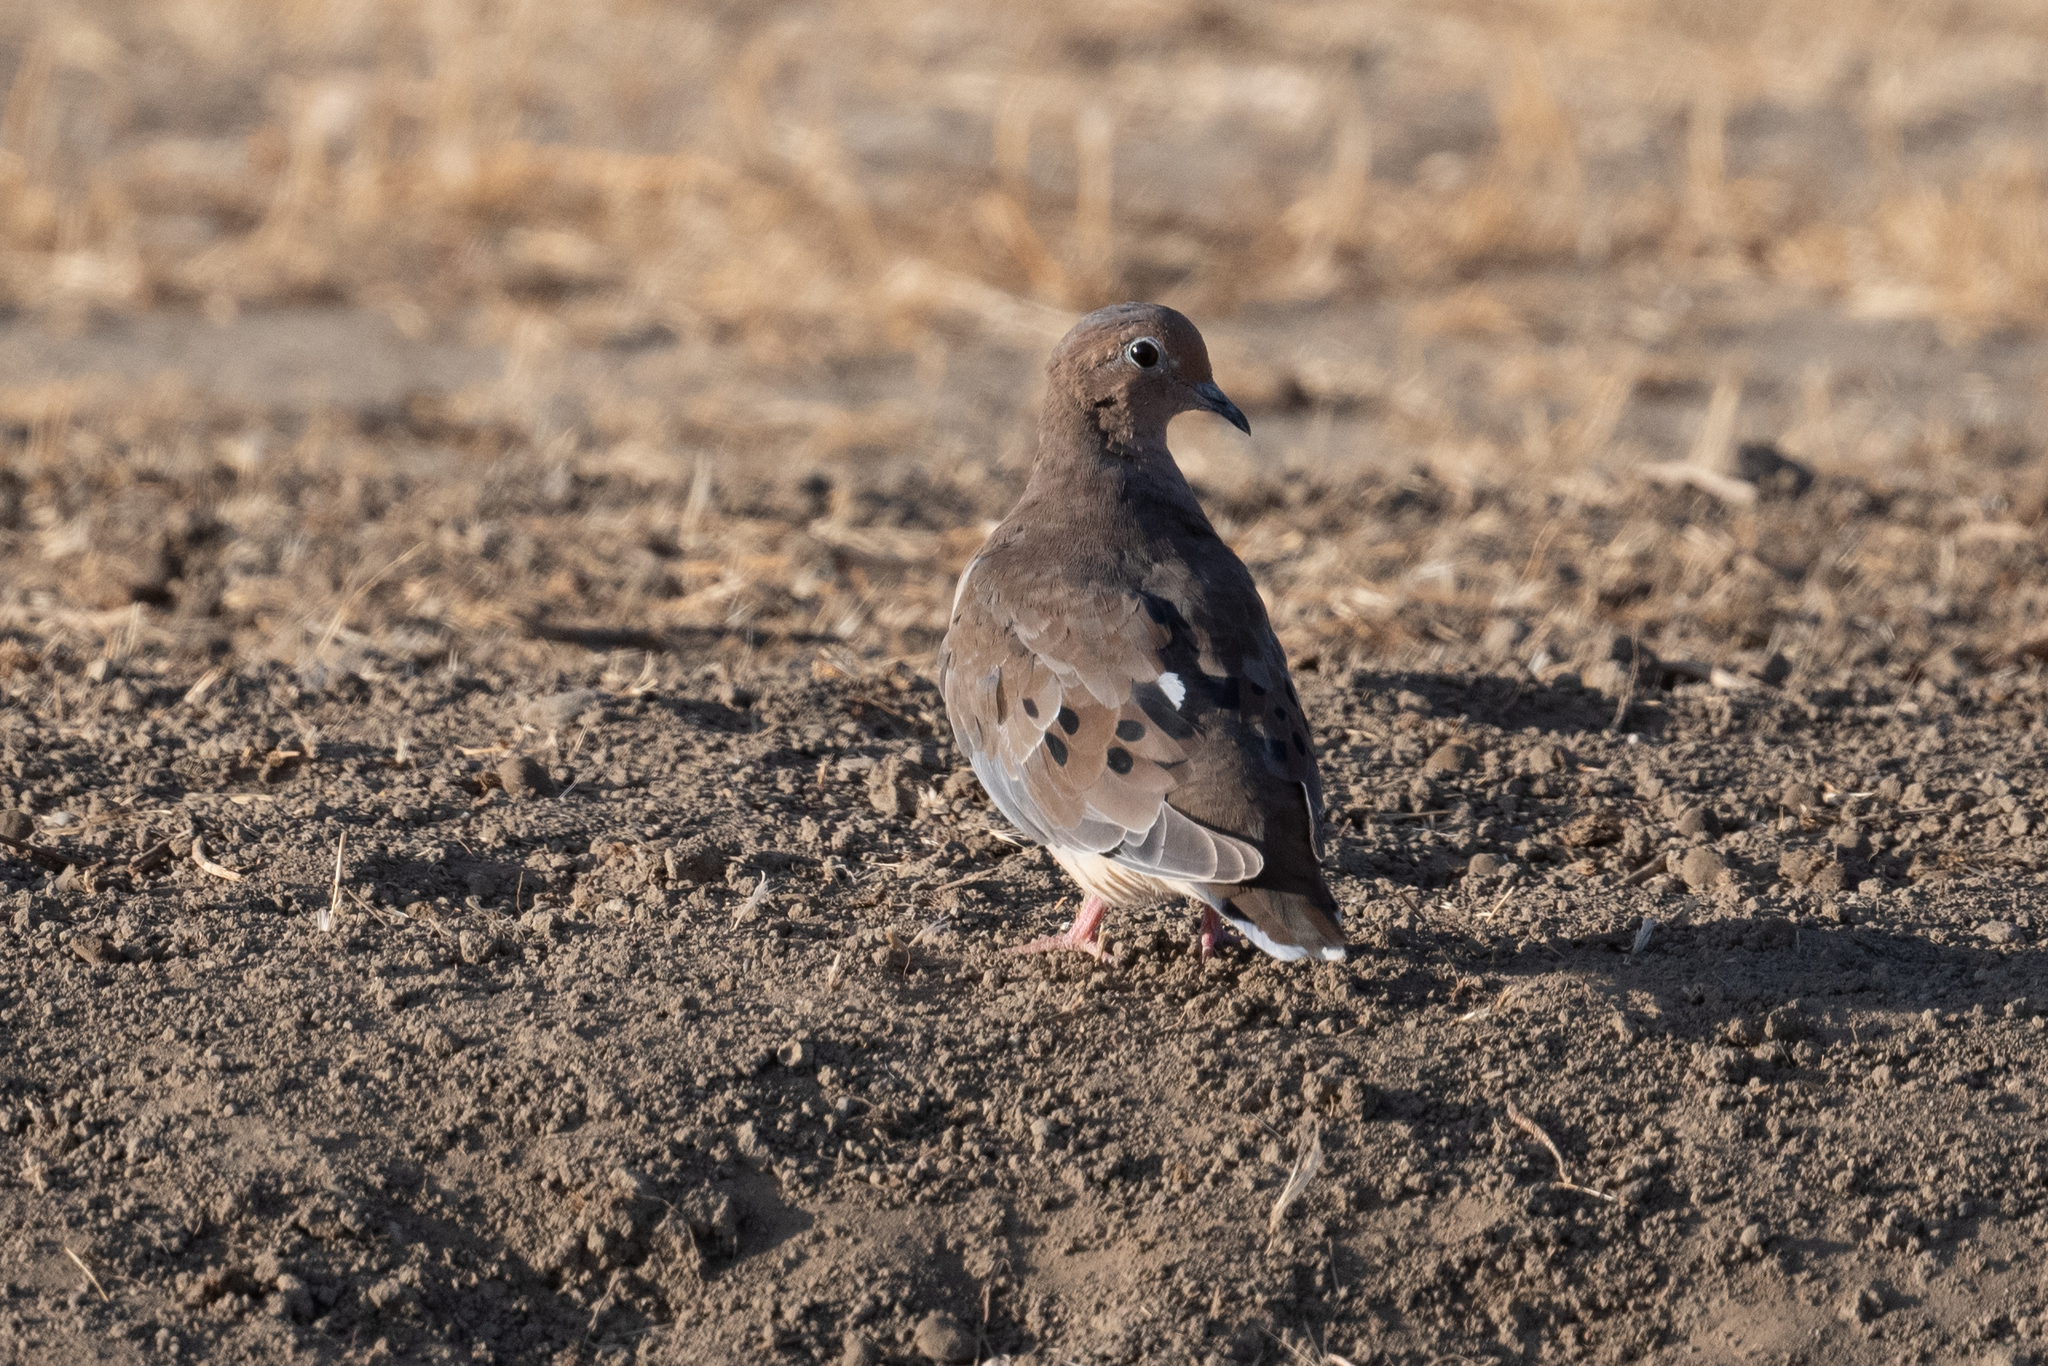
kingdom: Animalia
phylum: Chordata
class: Aves
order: Columbiformes
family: Columbidae
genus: Zenaida
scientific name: Zenaida macroura
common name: Mourning dove
